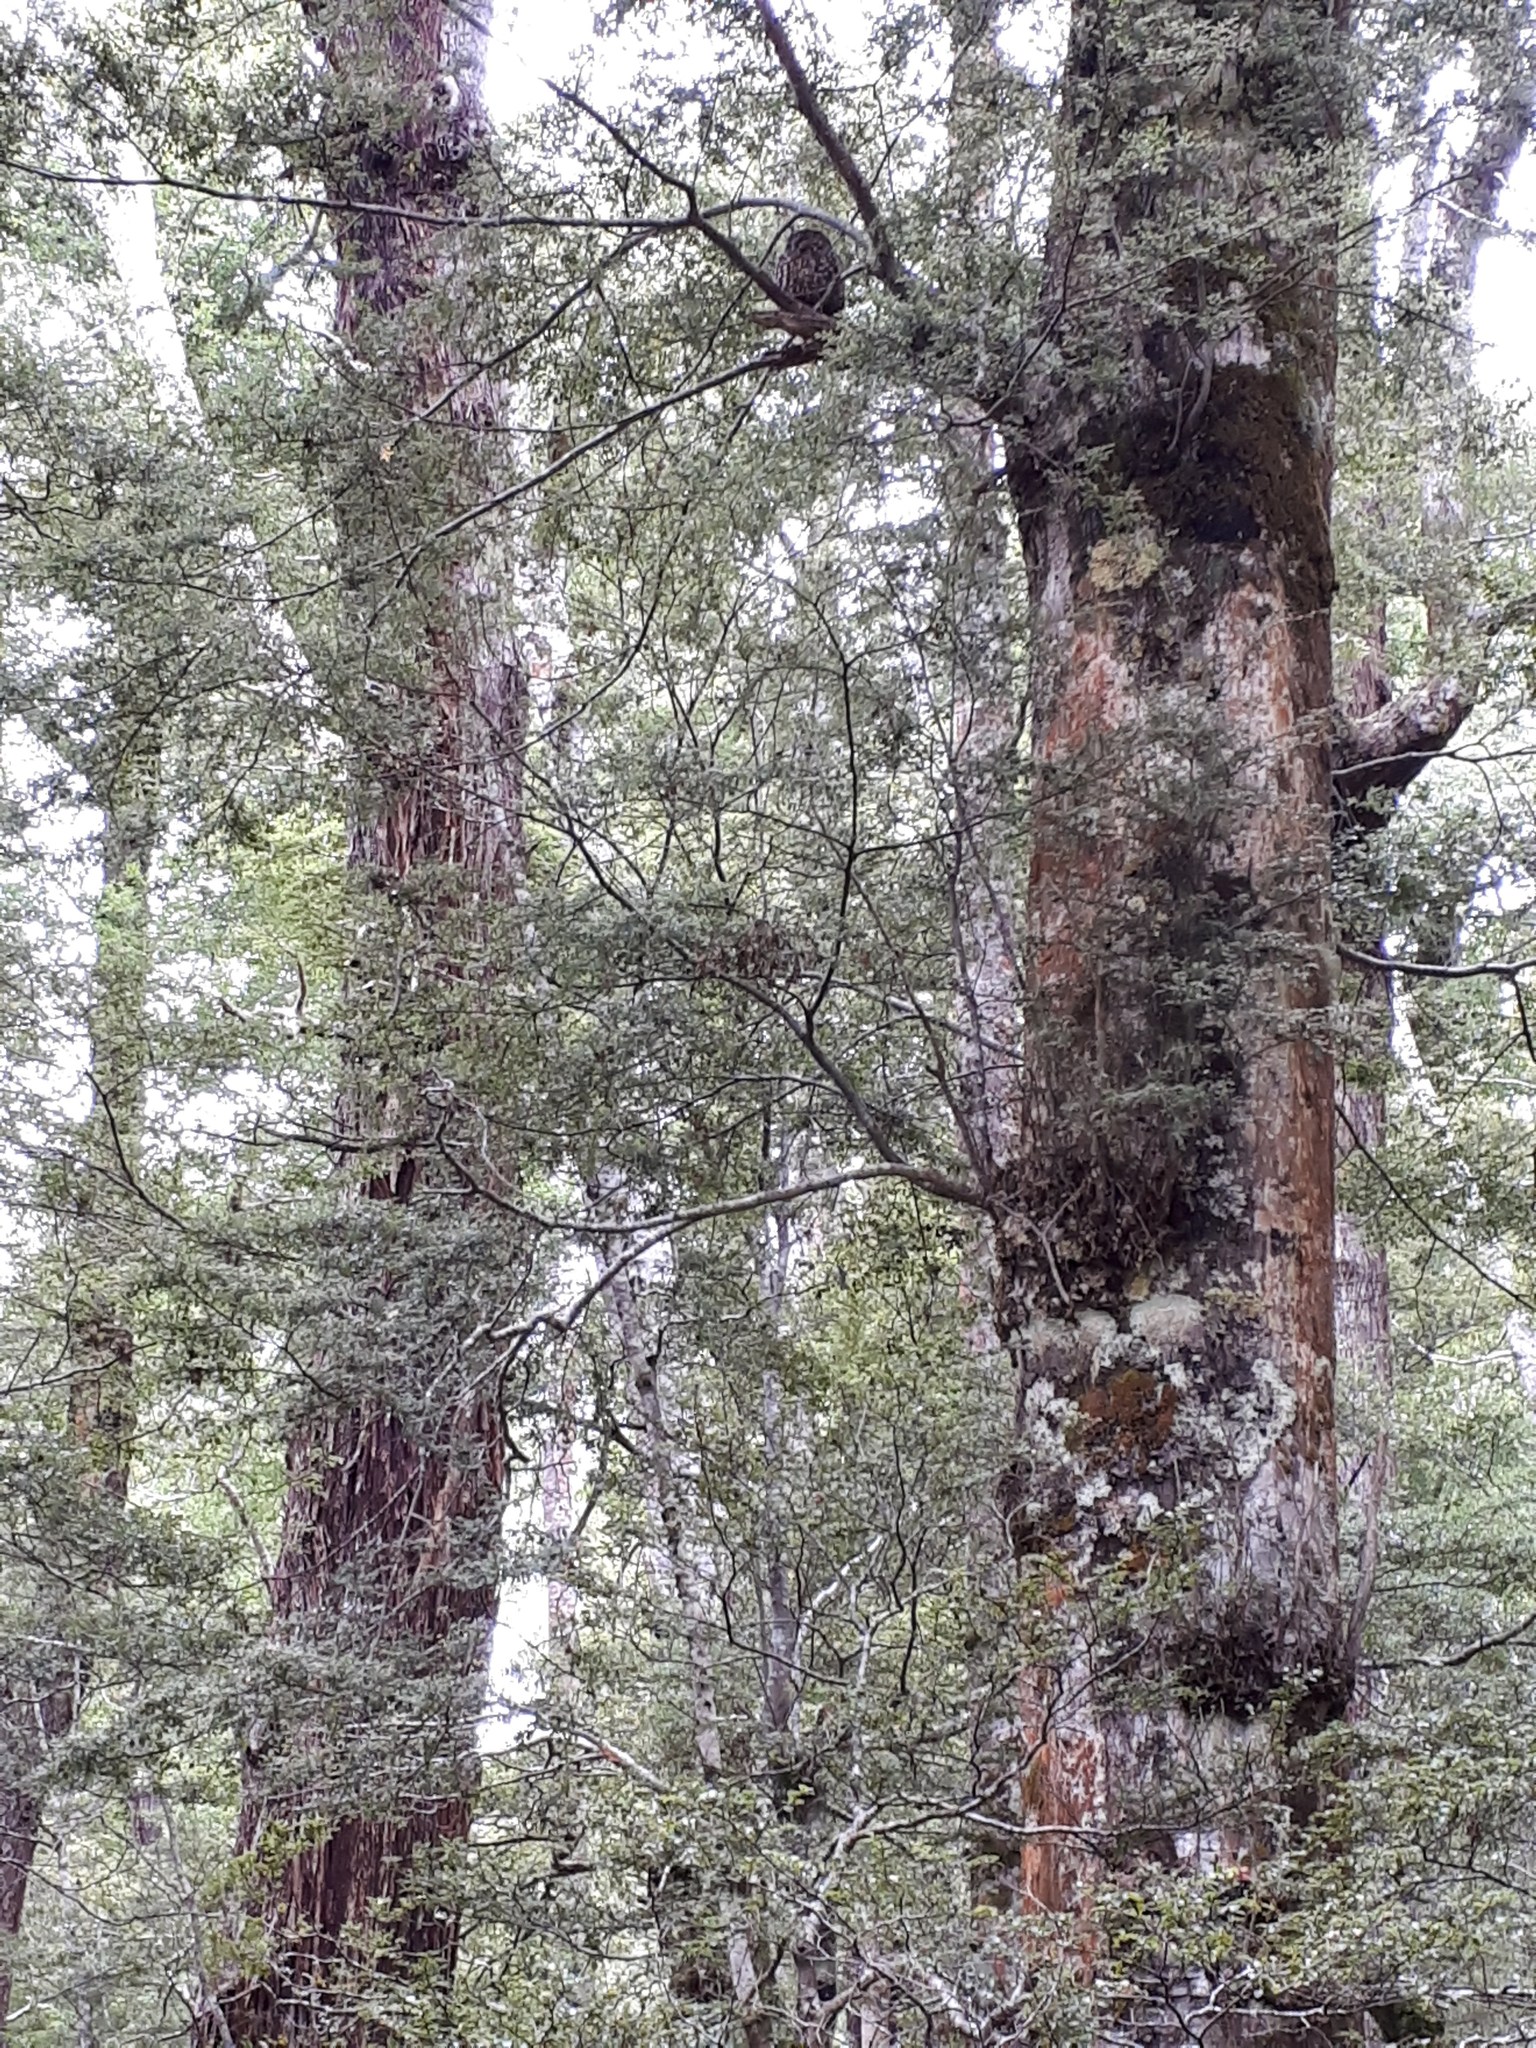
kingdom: Animalia
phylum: Chordata
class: Aves
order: Strigiformes
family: Strigidae
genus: Ninox
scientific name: Ninox novaeseelandiae
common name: Morepork
